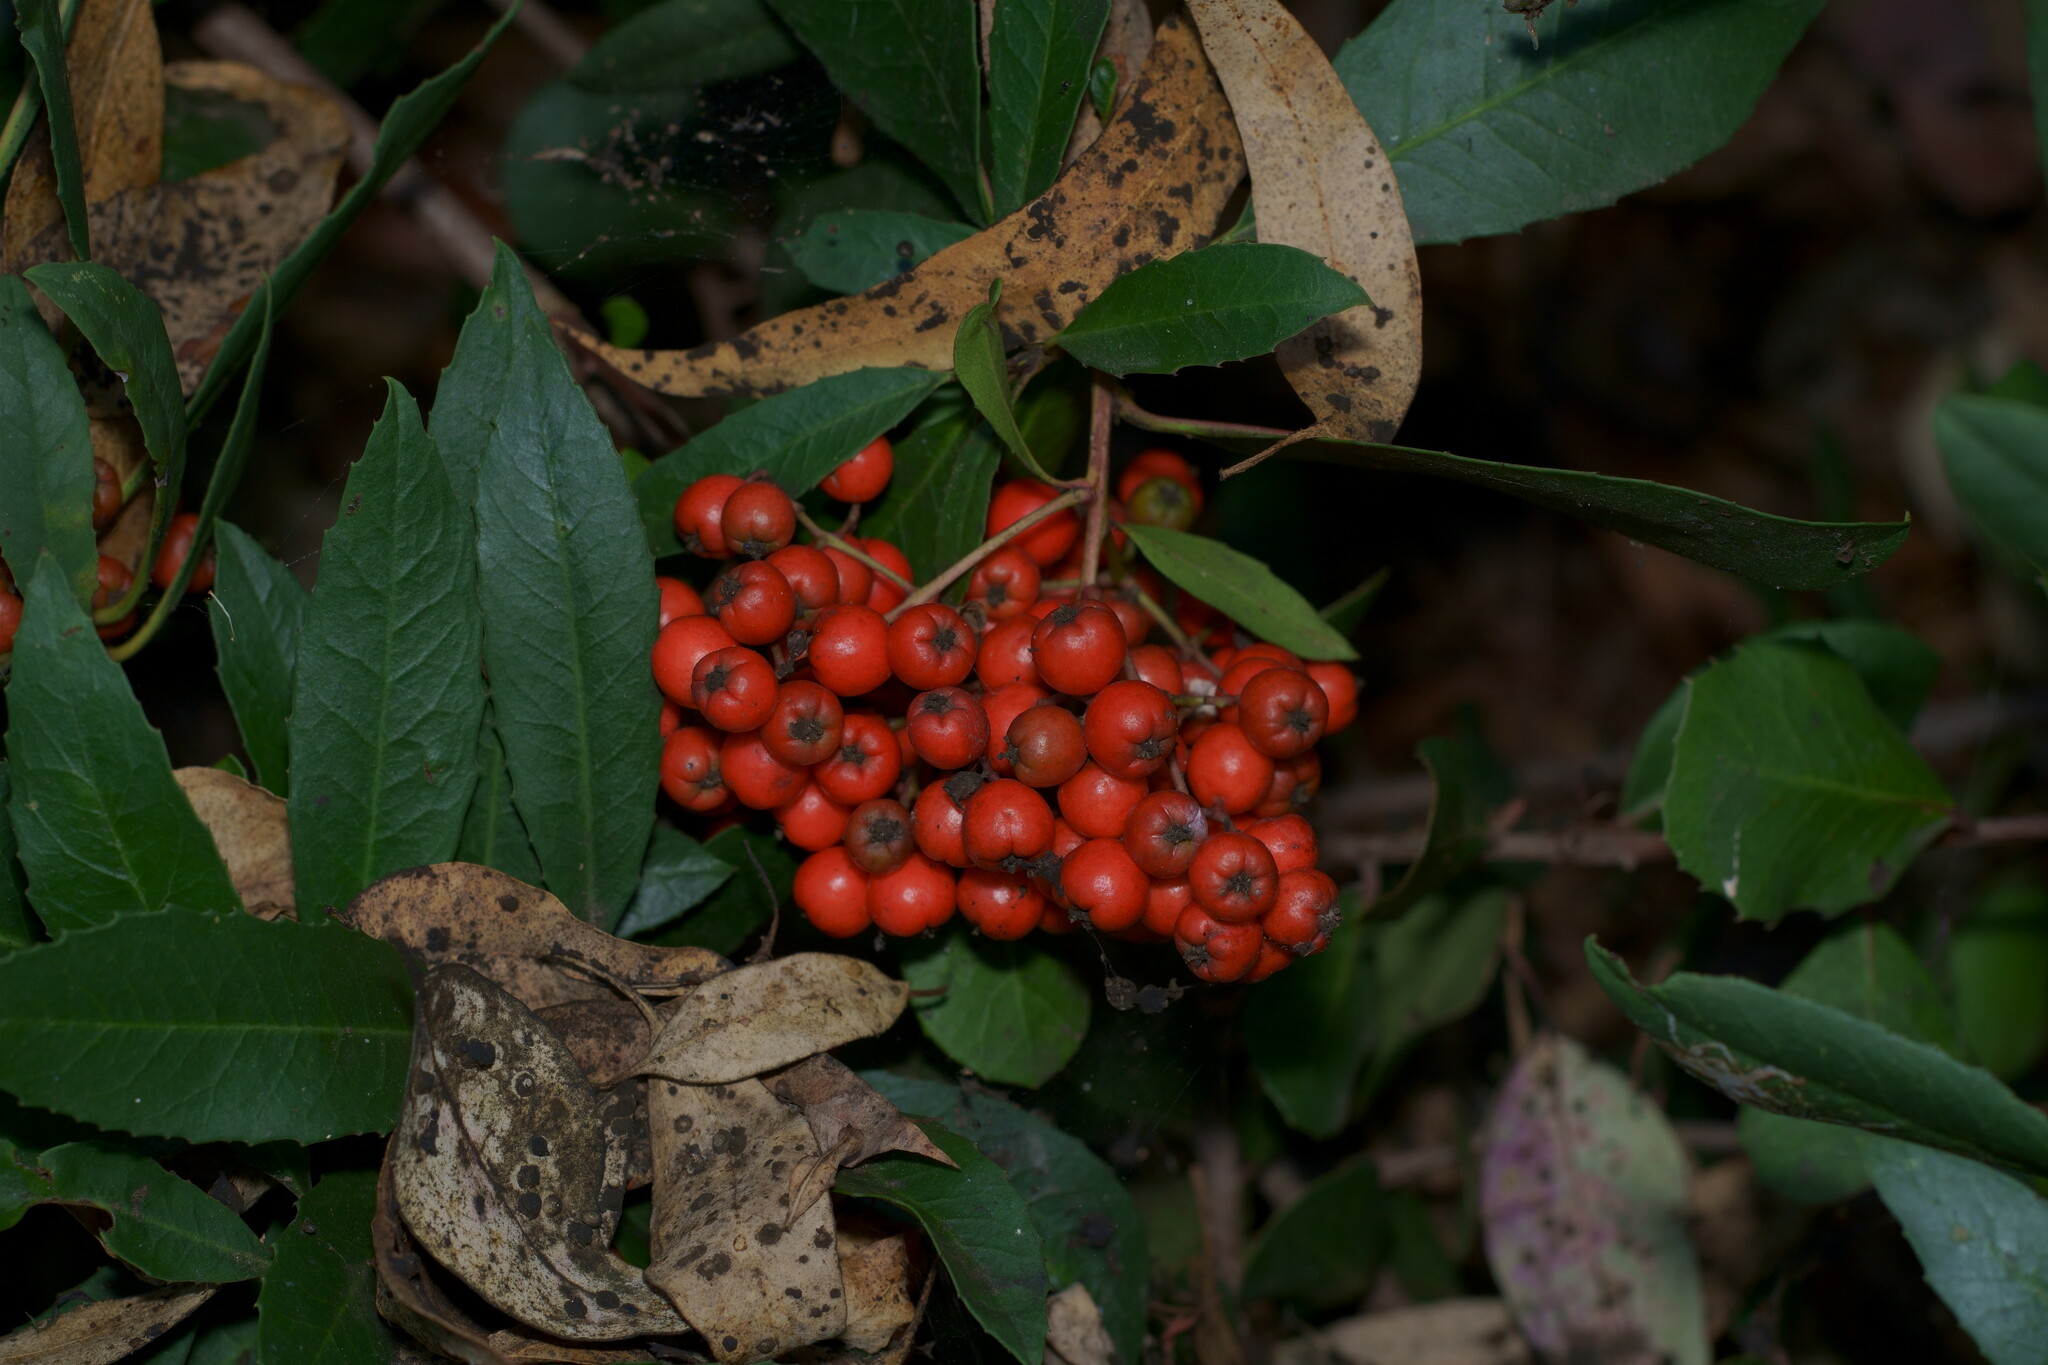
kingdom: Plantae
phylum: Tracheophyta
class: Magnoliopsida
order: Rosales
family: Rosaceae
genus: Heteromeles
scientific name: Heteromeles arbutifolia
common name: California-holly
